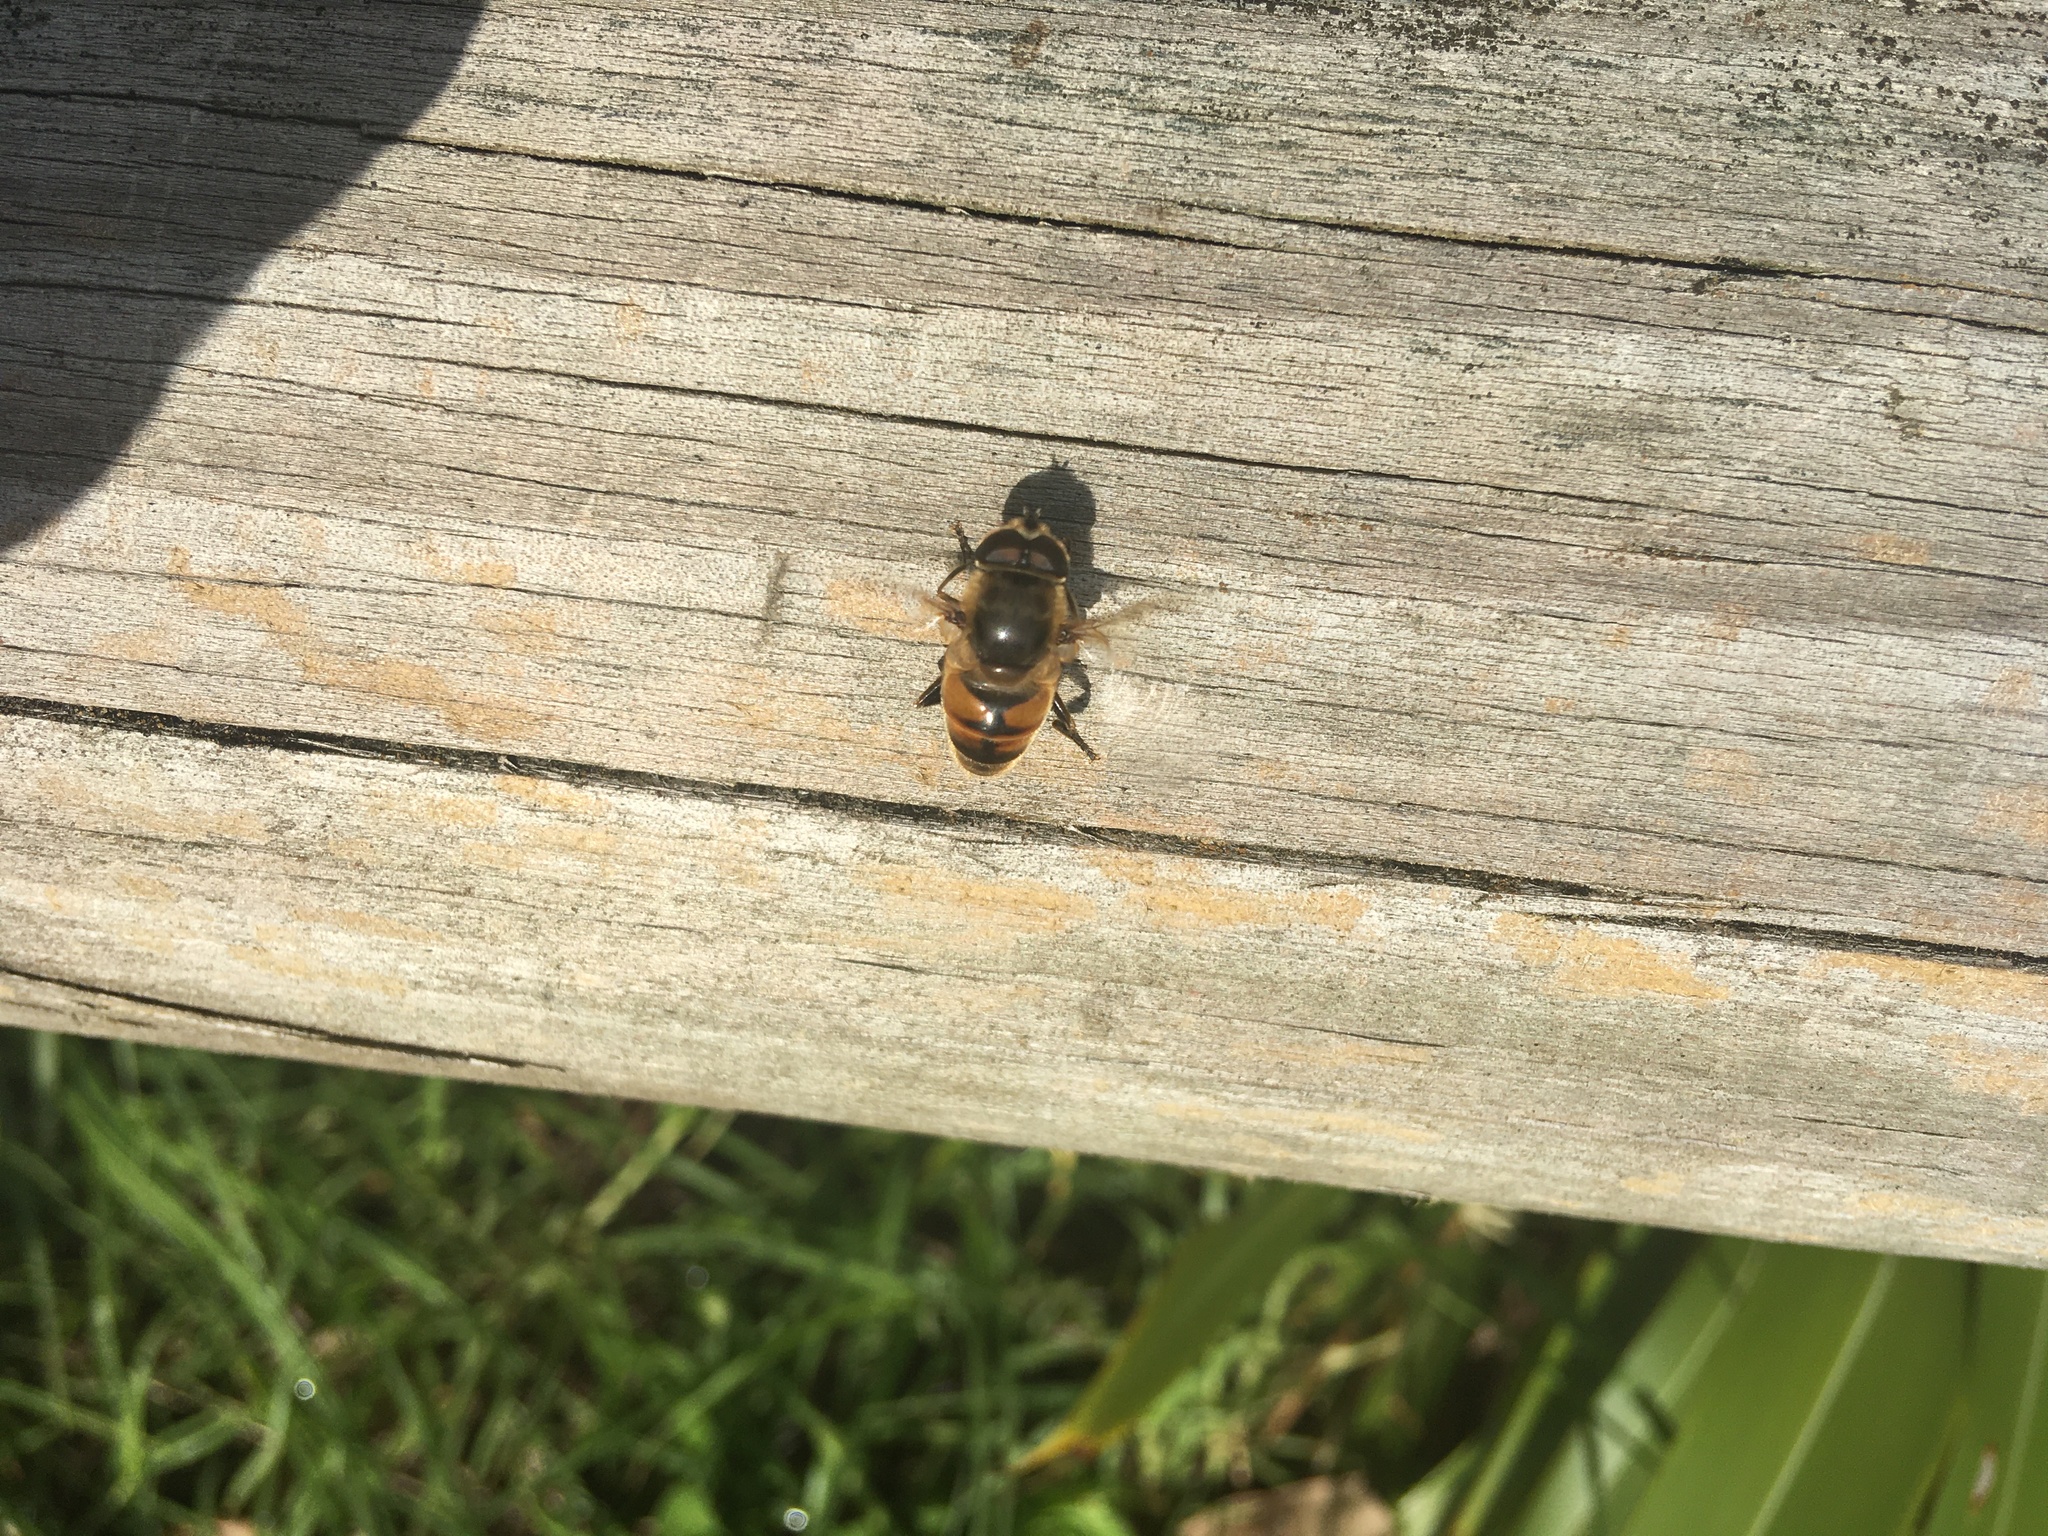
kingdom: Animalia
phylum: Arthropoda
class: Insecta
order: Diptera
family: Syrphidae
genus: Eristalis
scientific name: Eristalis tenax
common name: Drone fly
